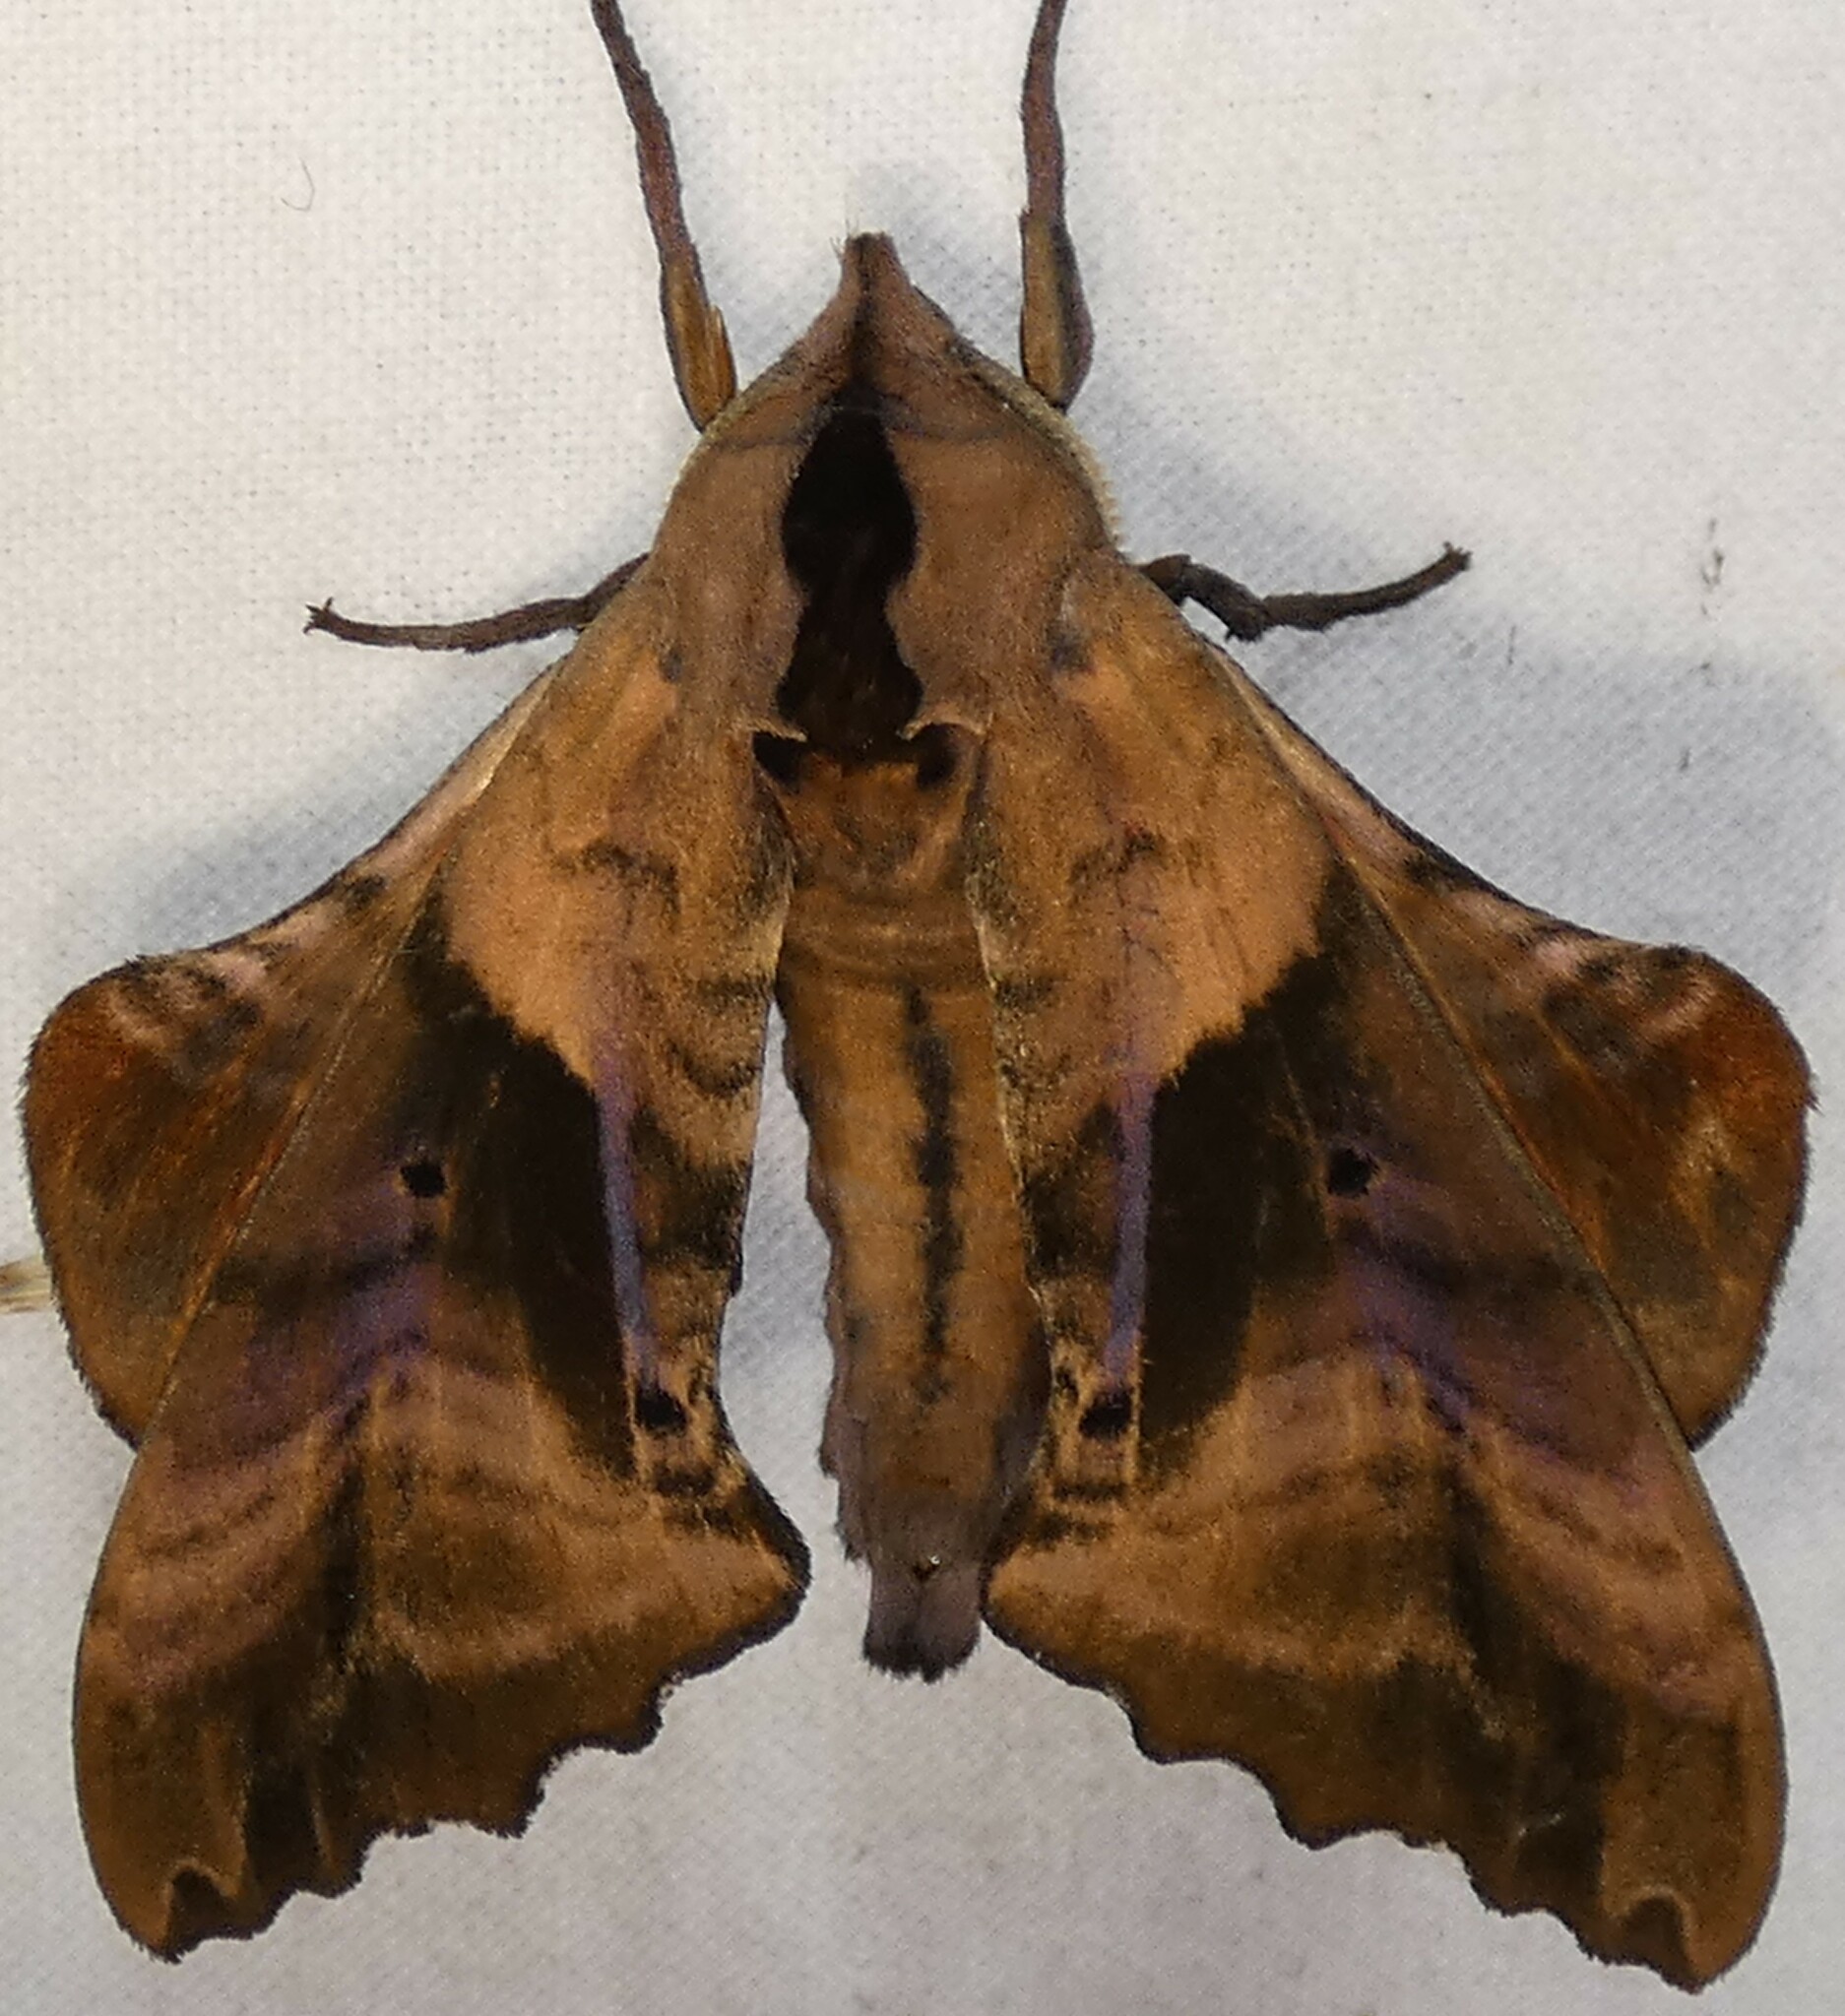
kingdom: Animalia
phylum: Arthropoda
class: Insecta
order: Lepidoptera
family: Sphingidae
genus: Paonias
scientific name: Paonias excaecata
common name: Blind-eyed sphinx
